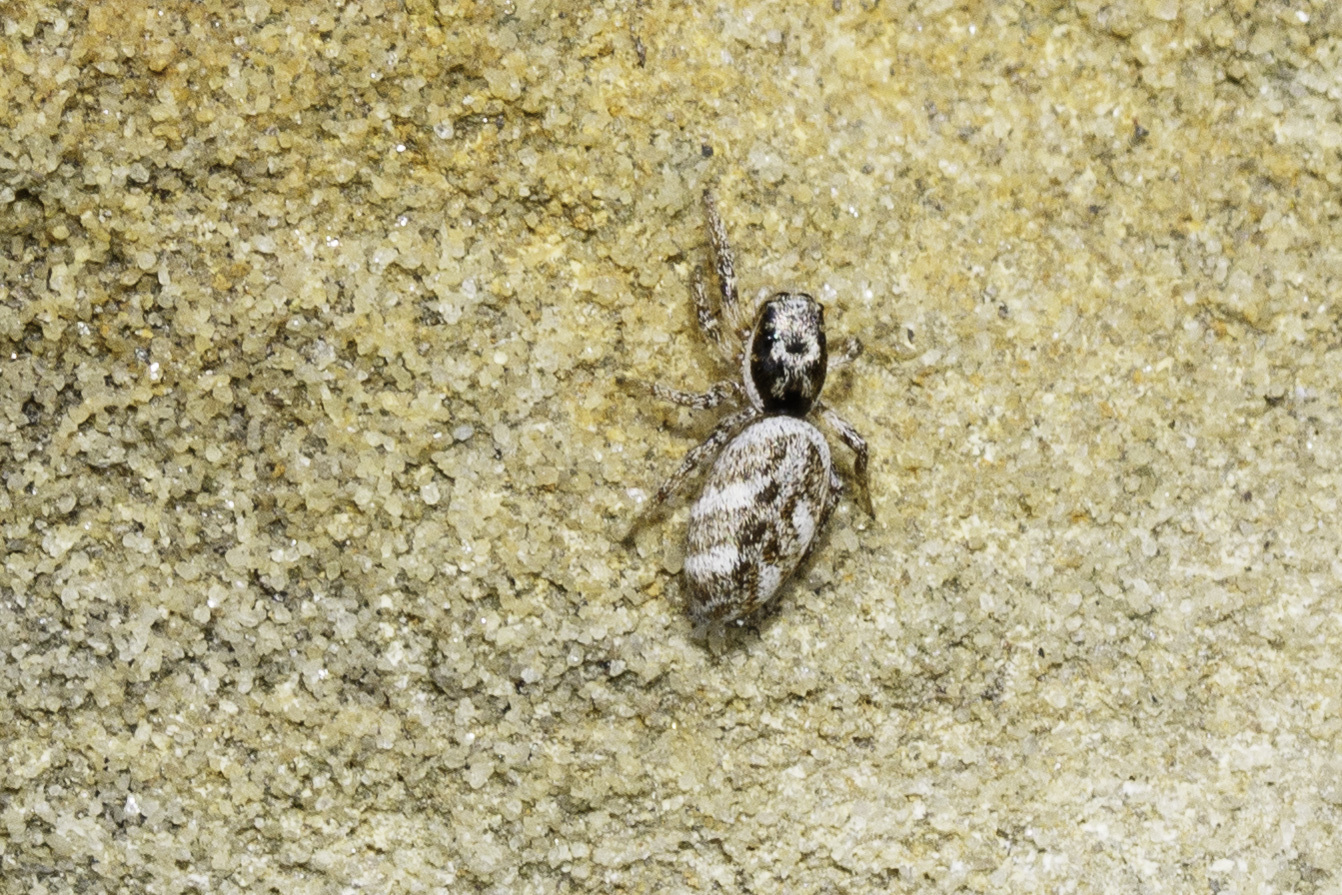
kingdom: Animalia
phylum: Arthropoda
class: Arachnida
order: Araneae
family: Salticidae
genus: Salticus
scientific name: Salticus scenicus
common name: Zebra jumper
